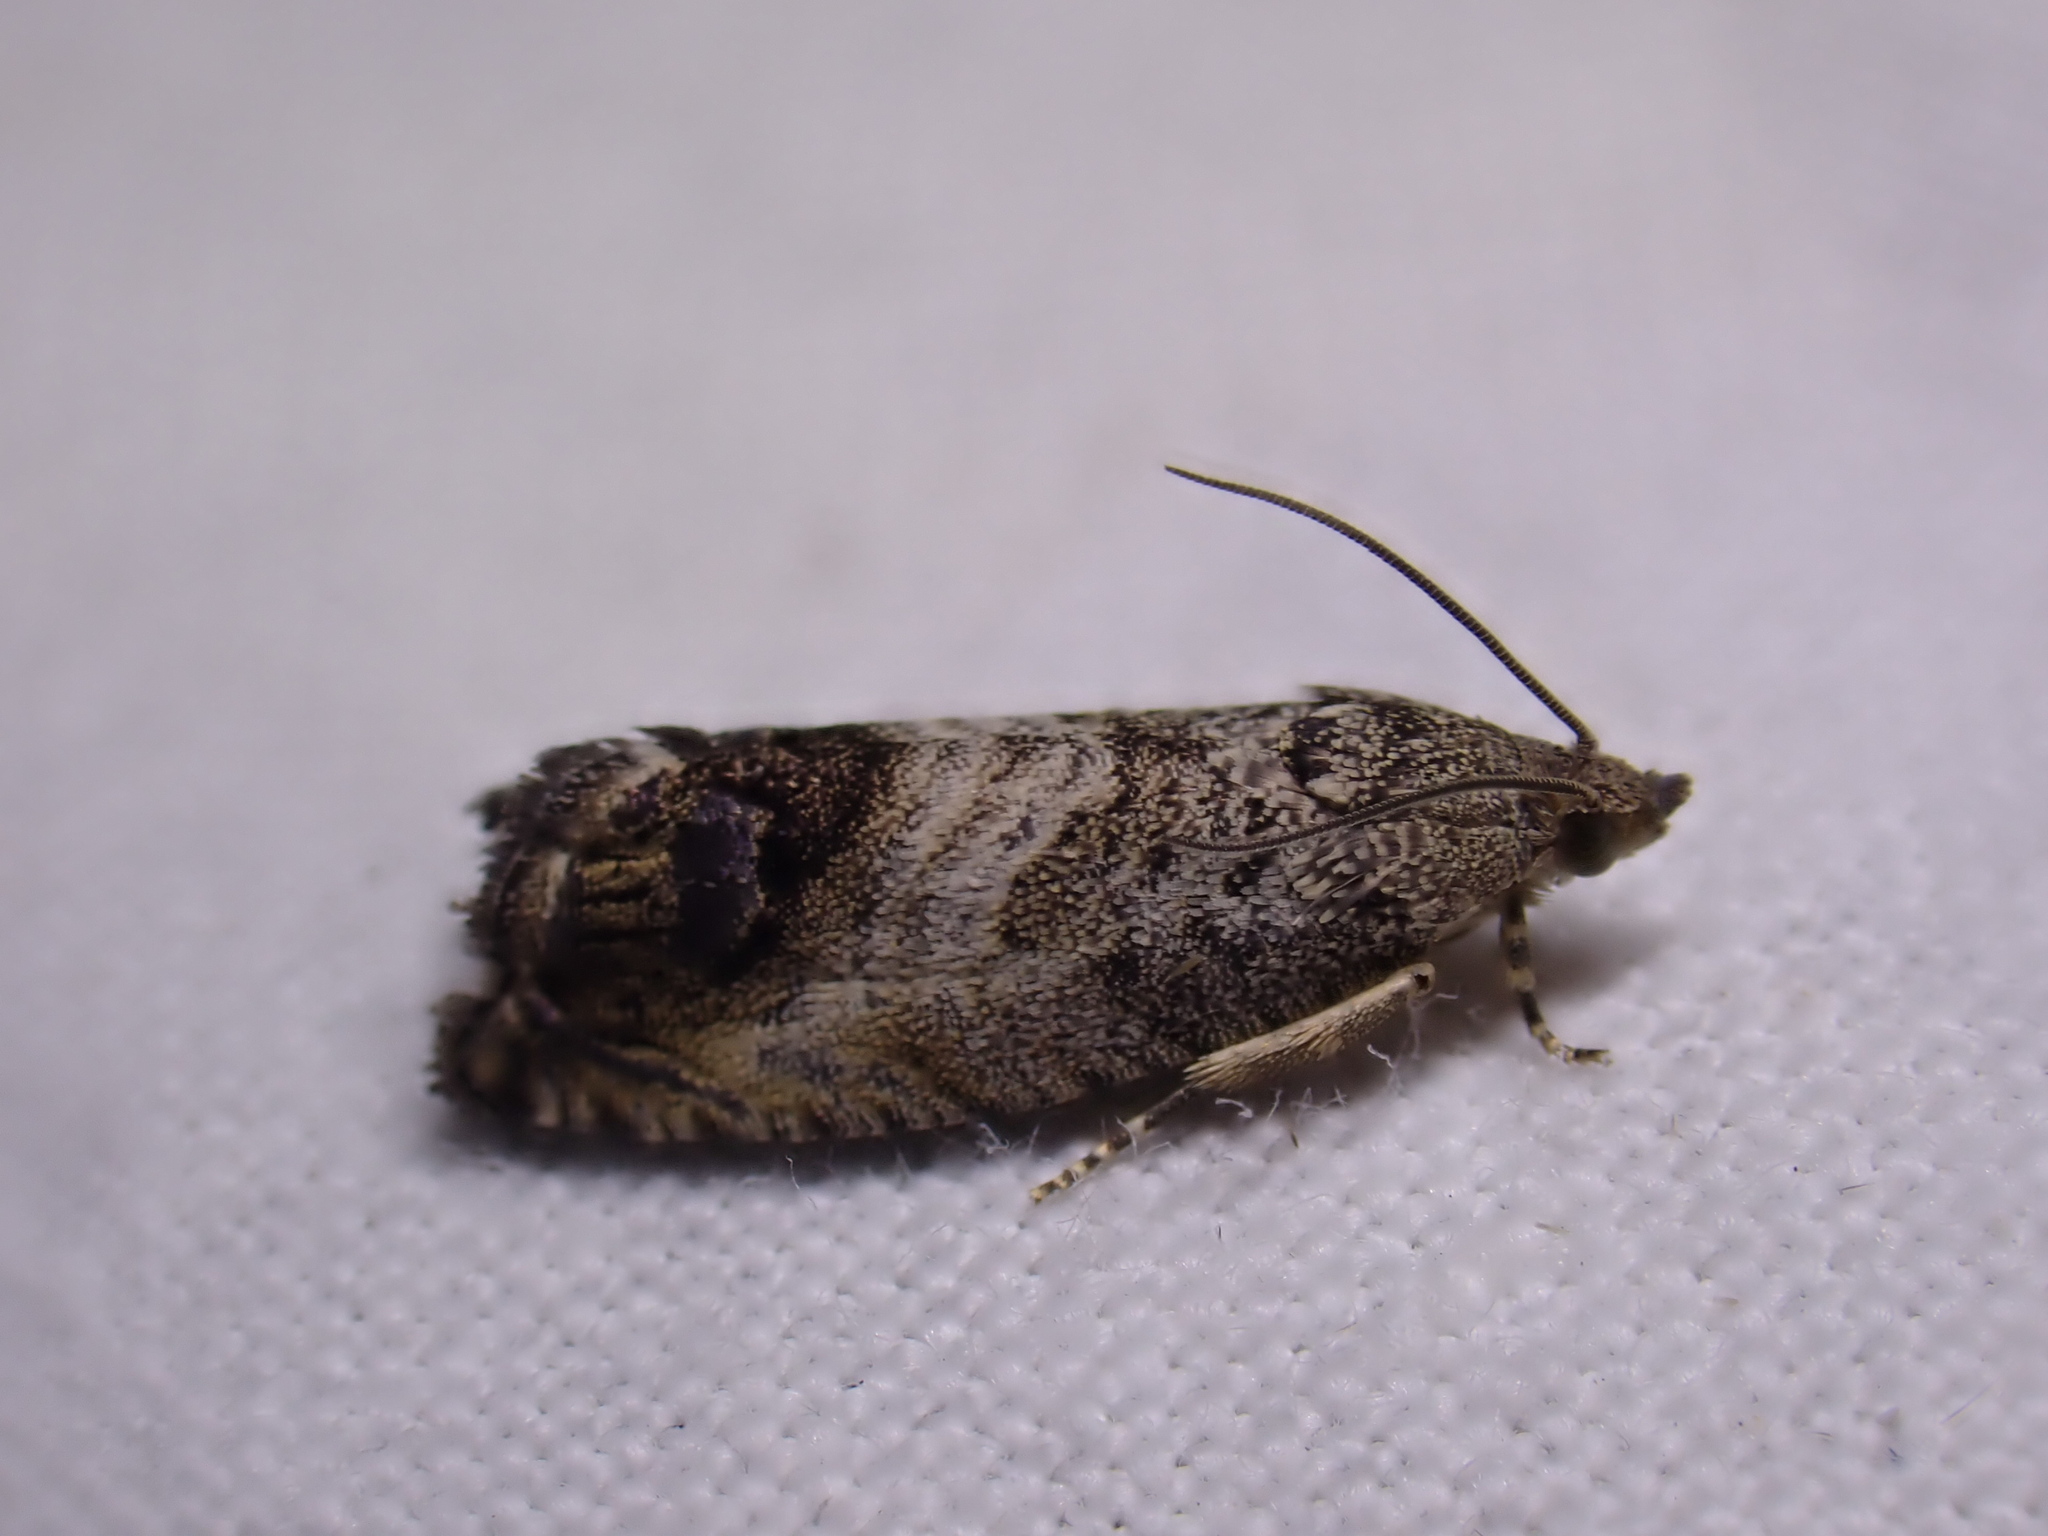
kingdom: Animalia
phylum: Arthropoda
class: Insecta
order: Lepidoptera
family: Tortricidae
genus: Cydia
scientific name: Cydia splendana
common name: De: kastanienwickler, eichenwickler es: oruga de la castaña fr: carpocapse des châtaignes it: cidia o tortrice tardiva delle castagne pt: bichado das castanhas gb: acorn moth, chestnut fruit tortrix
